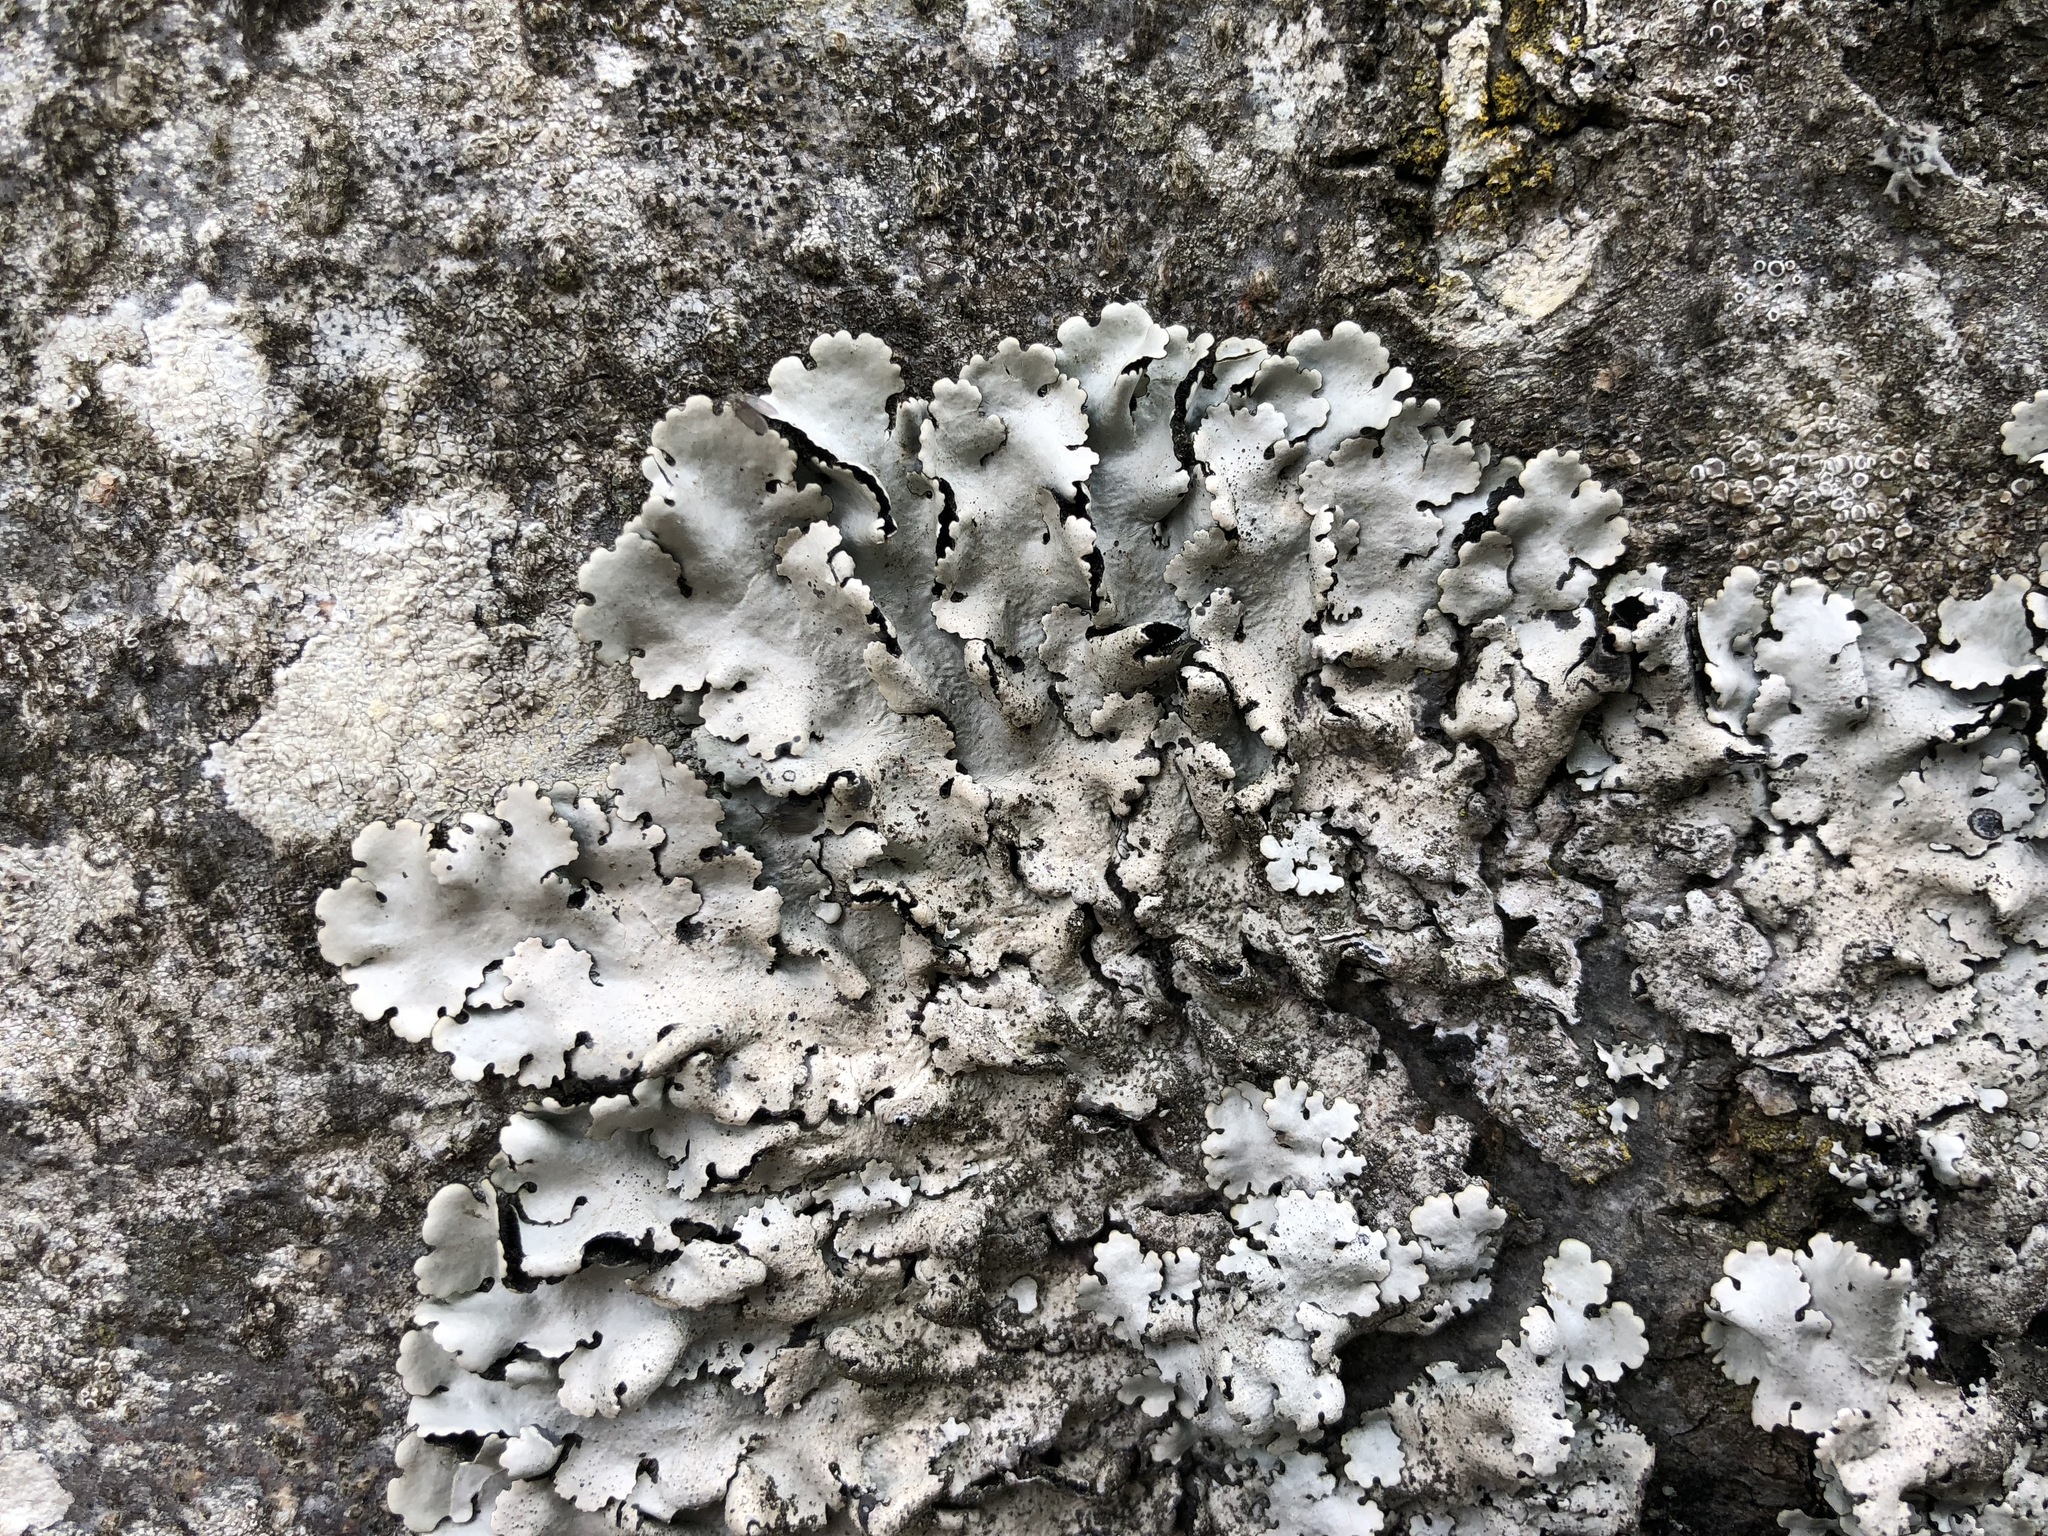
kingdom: Fungi
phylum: Ascomycota
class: Lecanoromycetes
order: Lecanorales
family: Parmeliaceae
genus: Parmelina
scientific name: Parmelina tiliacea
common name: Linden shield lichen
